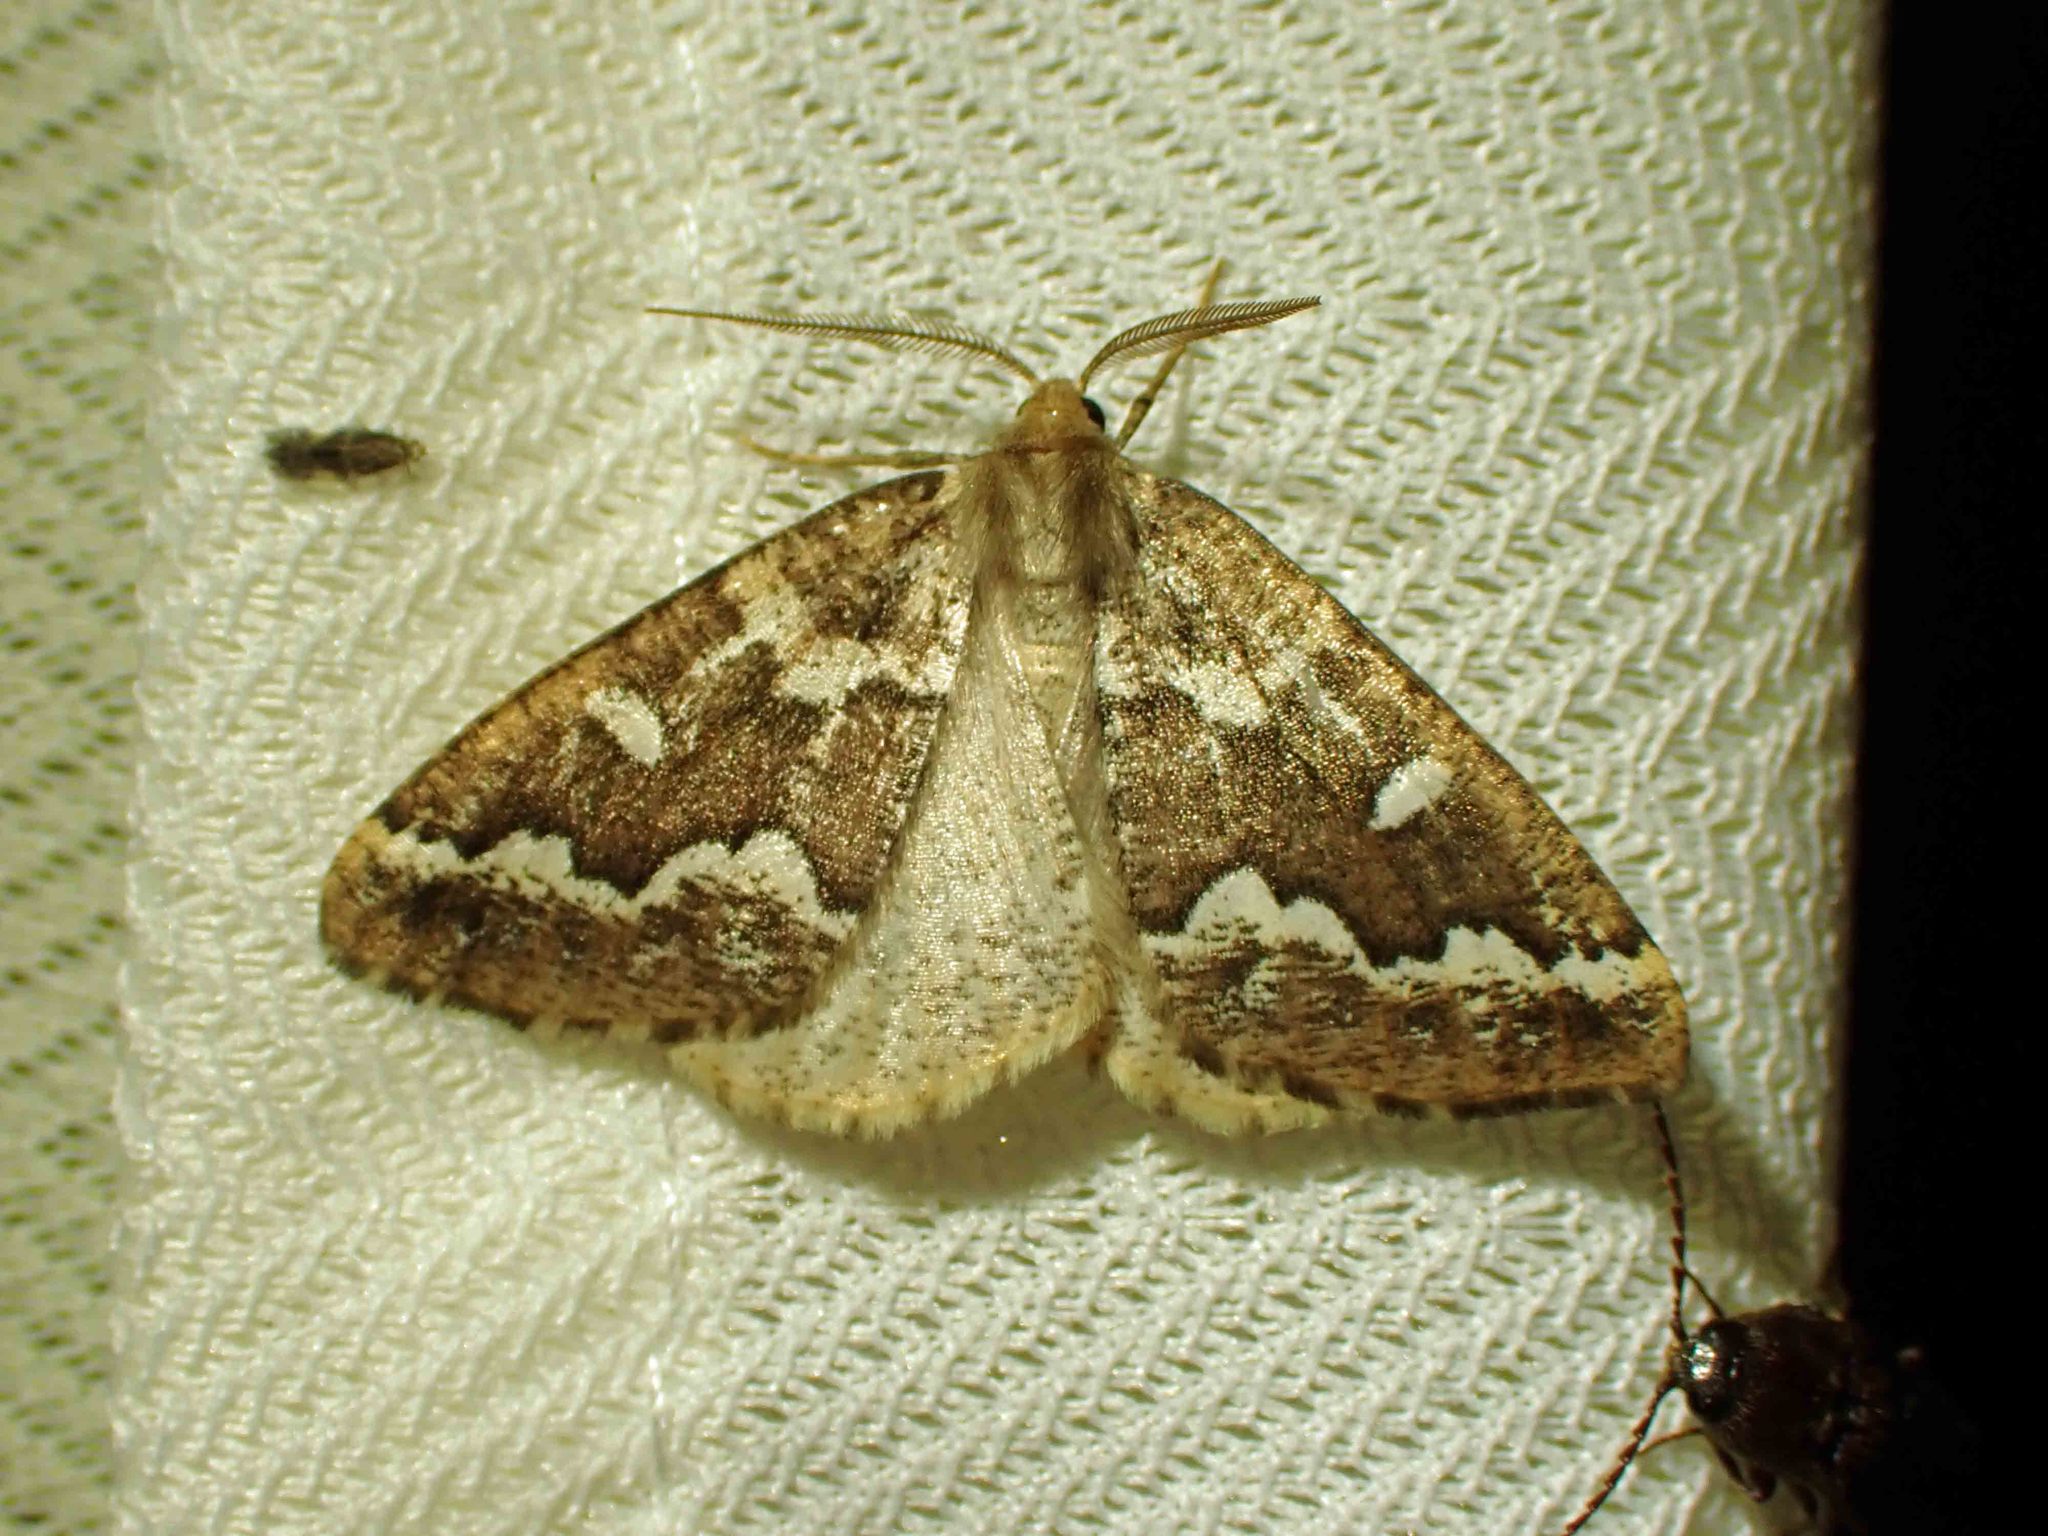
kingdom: Animalia
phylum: Arthropoda
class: Insecta
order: Lepidoptera
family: Geometridae
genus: Caripeta
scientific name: Caripeta divisata
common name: Gray spruce looper
